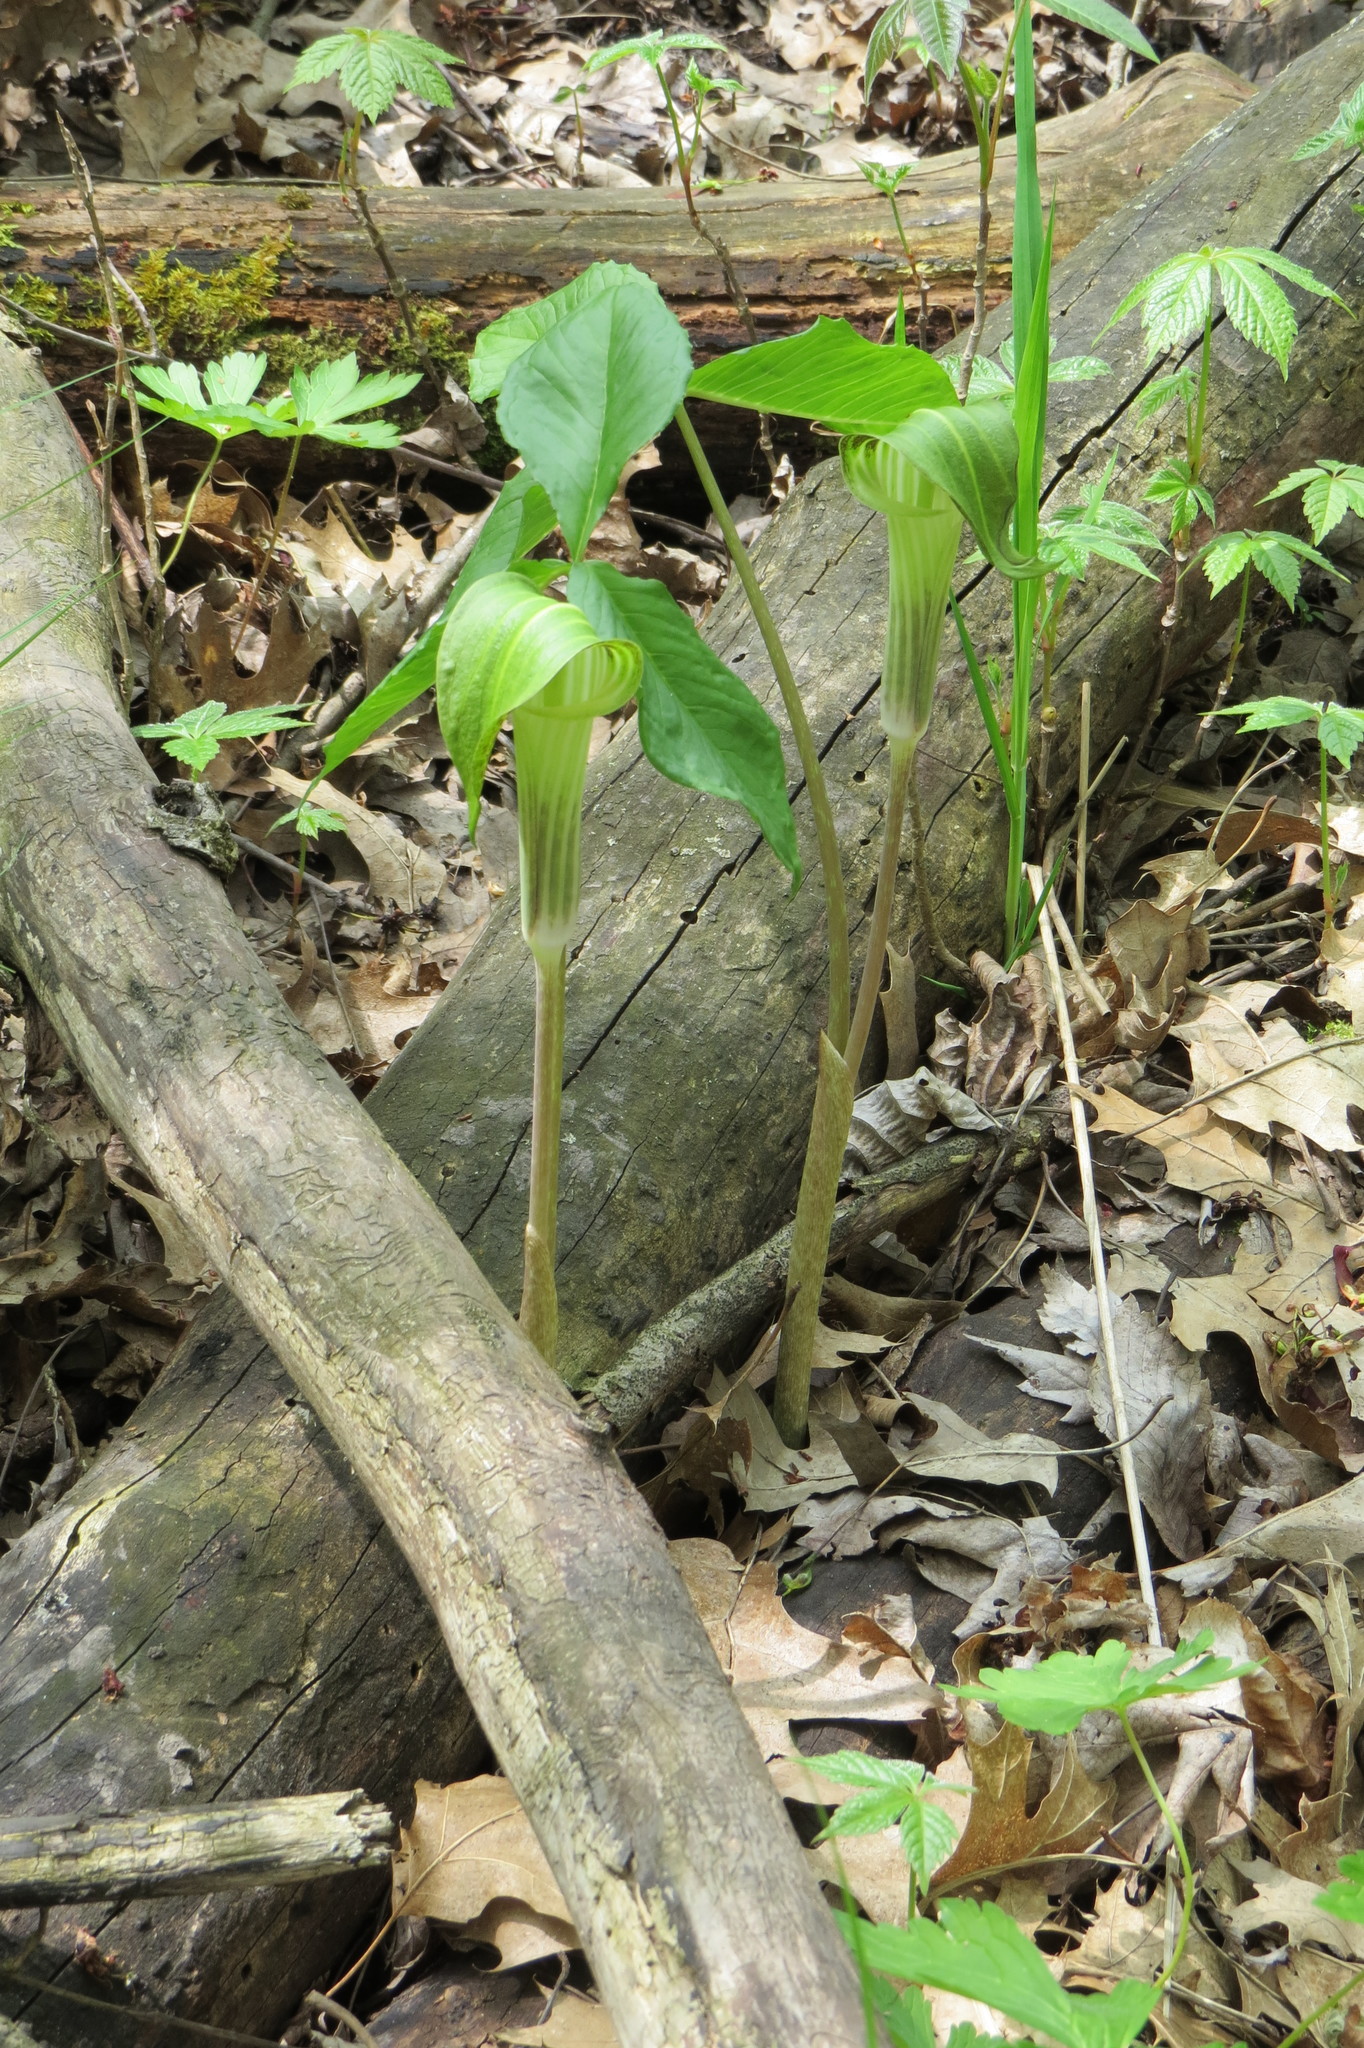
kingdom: Plantae
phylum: Tracheophyta
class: Liliopsida
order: Alismatales
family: Araceae
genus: Arisaema
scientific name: Arisaema triphyllum
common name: Jack-in-the-pulpit
